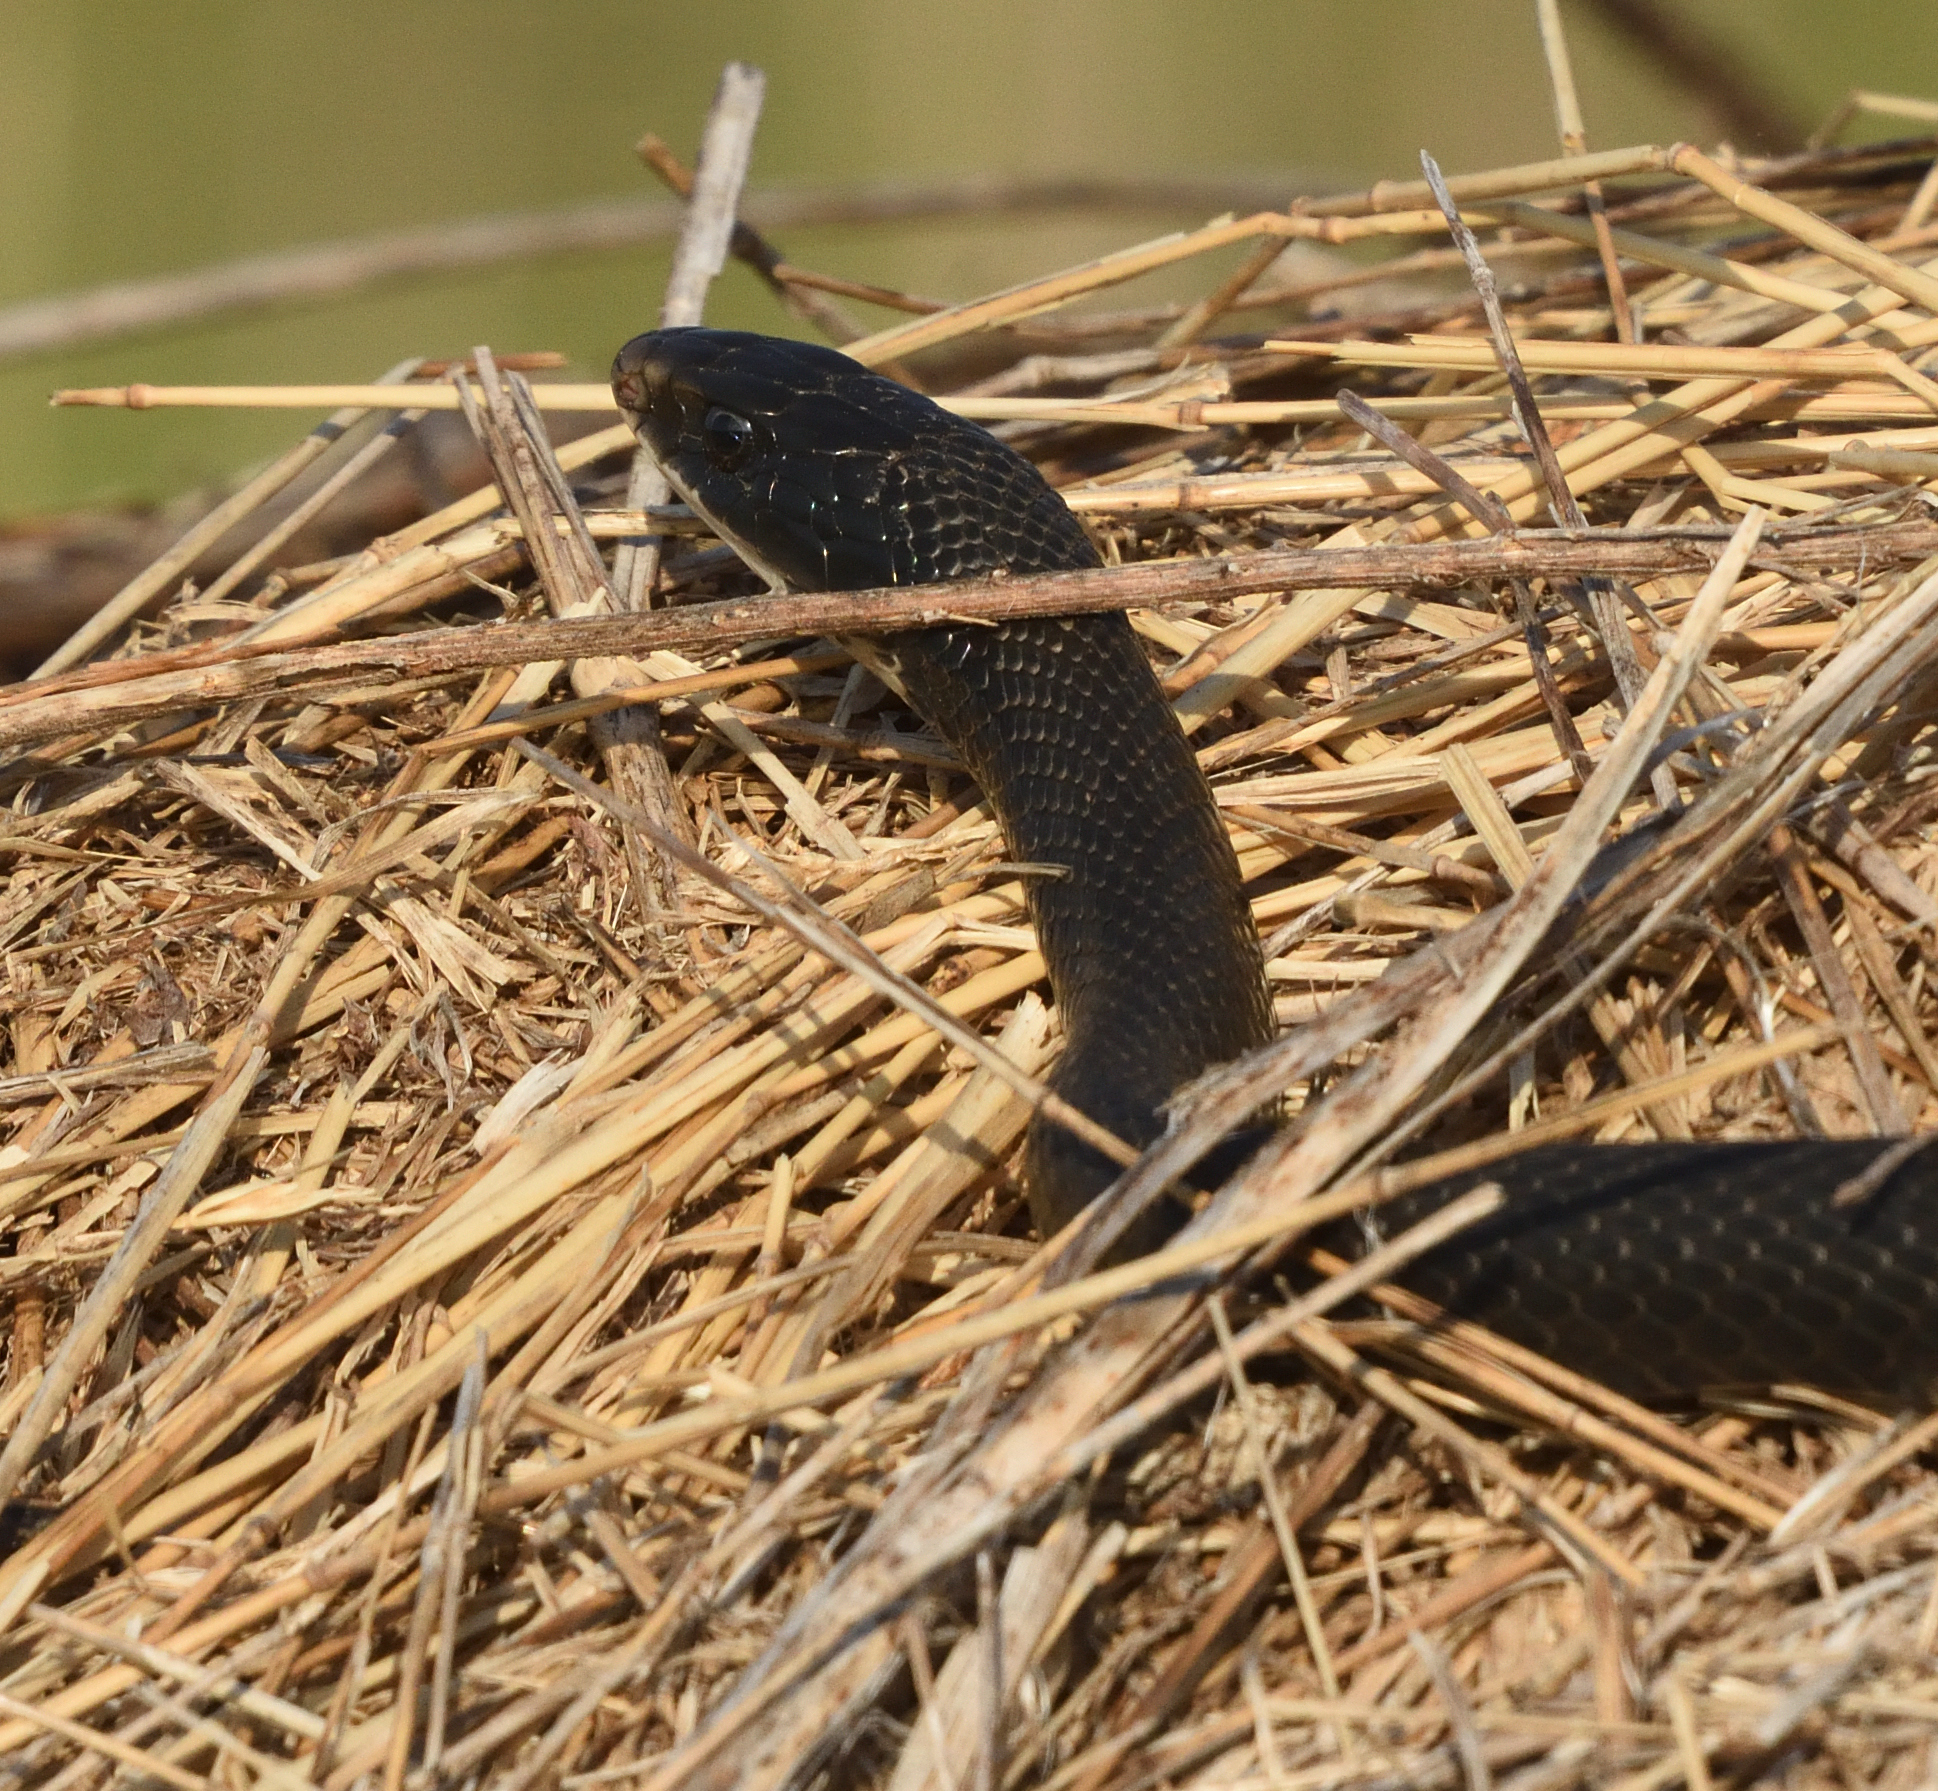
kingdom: Animalia
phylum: Chordata
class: Squamata
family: Colubridae
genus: Coluber
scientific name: Coluber constrictor
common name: Eastern racer
